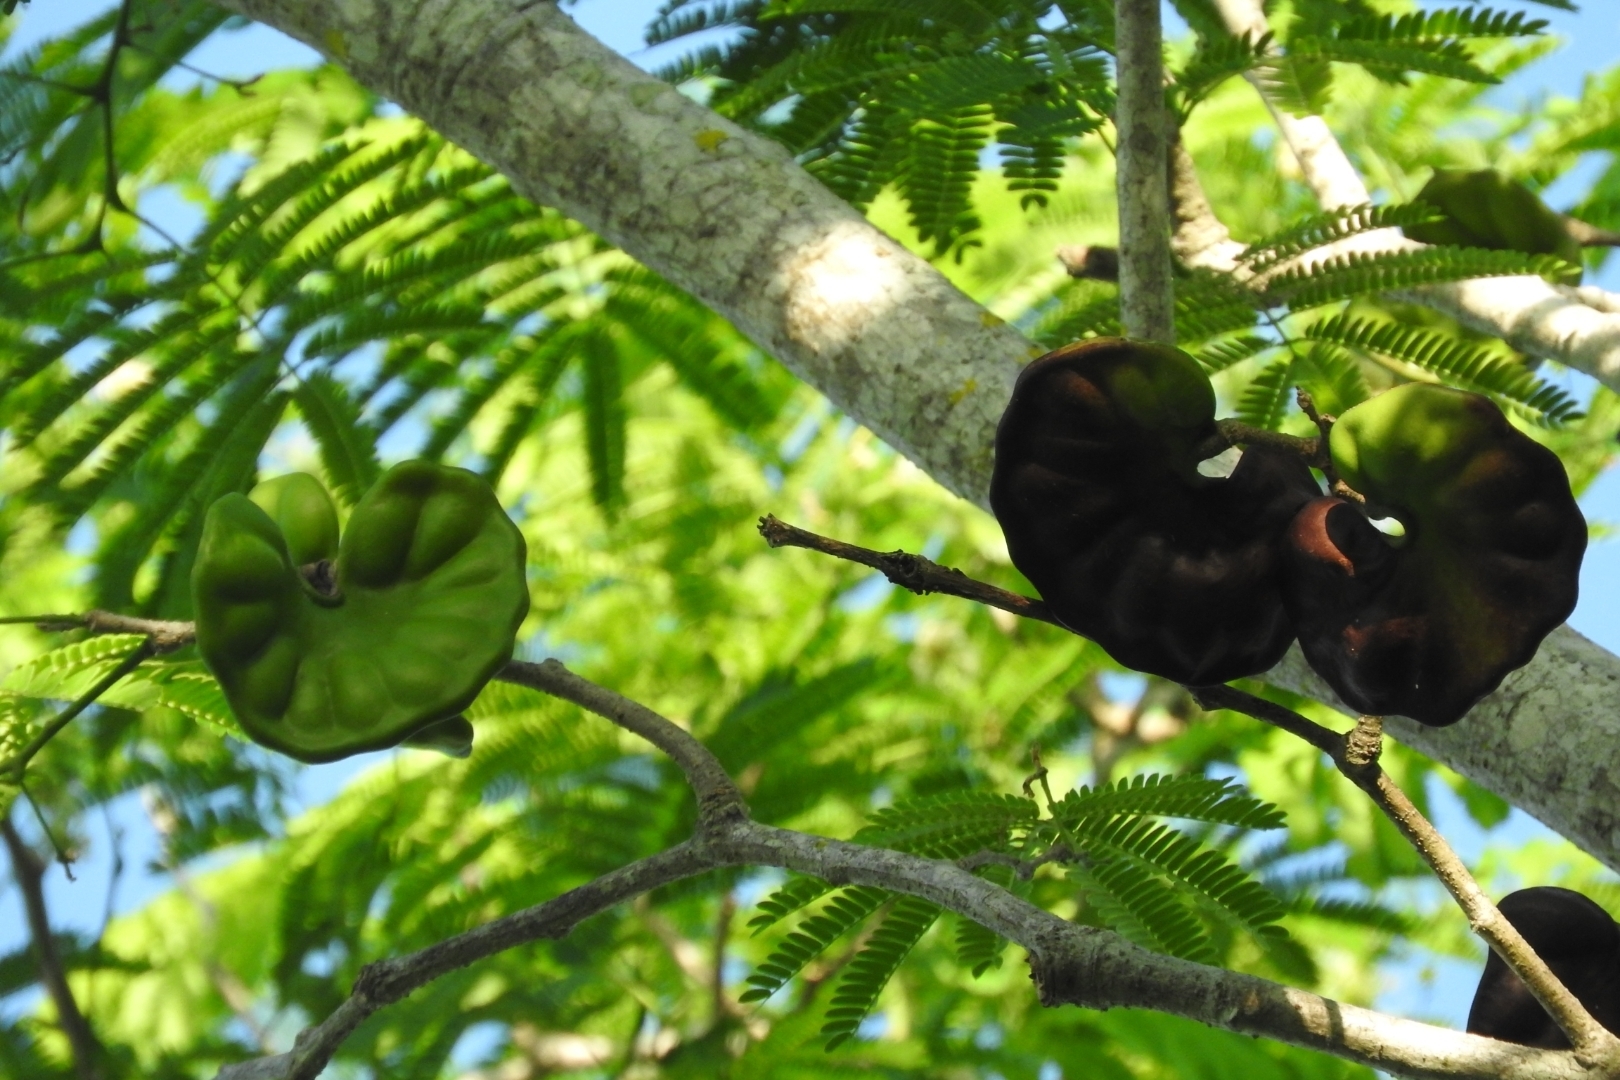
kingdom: Plantae
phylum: Tracheophyta
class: Magnoliopsida
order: Fabales
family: Fabaceae
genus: Enterolobium
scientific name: Enterolobium cyclocarpum
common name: Ear tree
